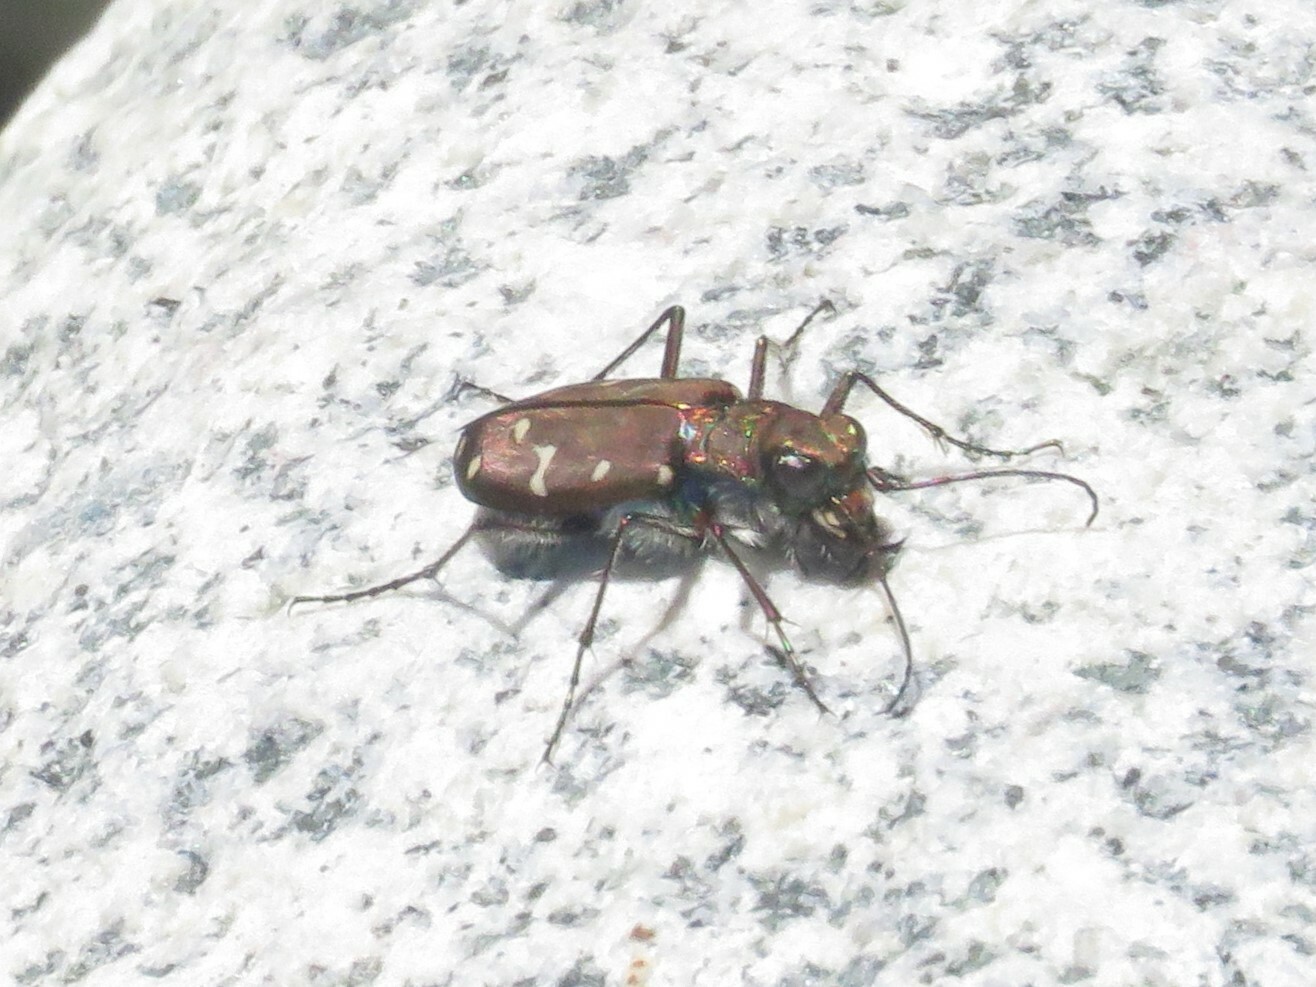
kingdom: Animalia
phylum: Arthropoda
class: Insecta
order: Coleoptera
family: Carabidae
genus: Cicindela
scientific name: Cicindela oregona
